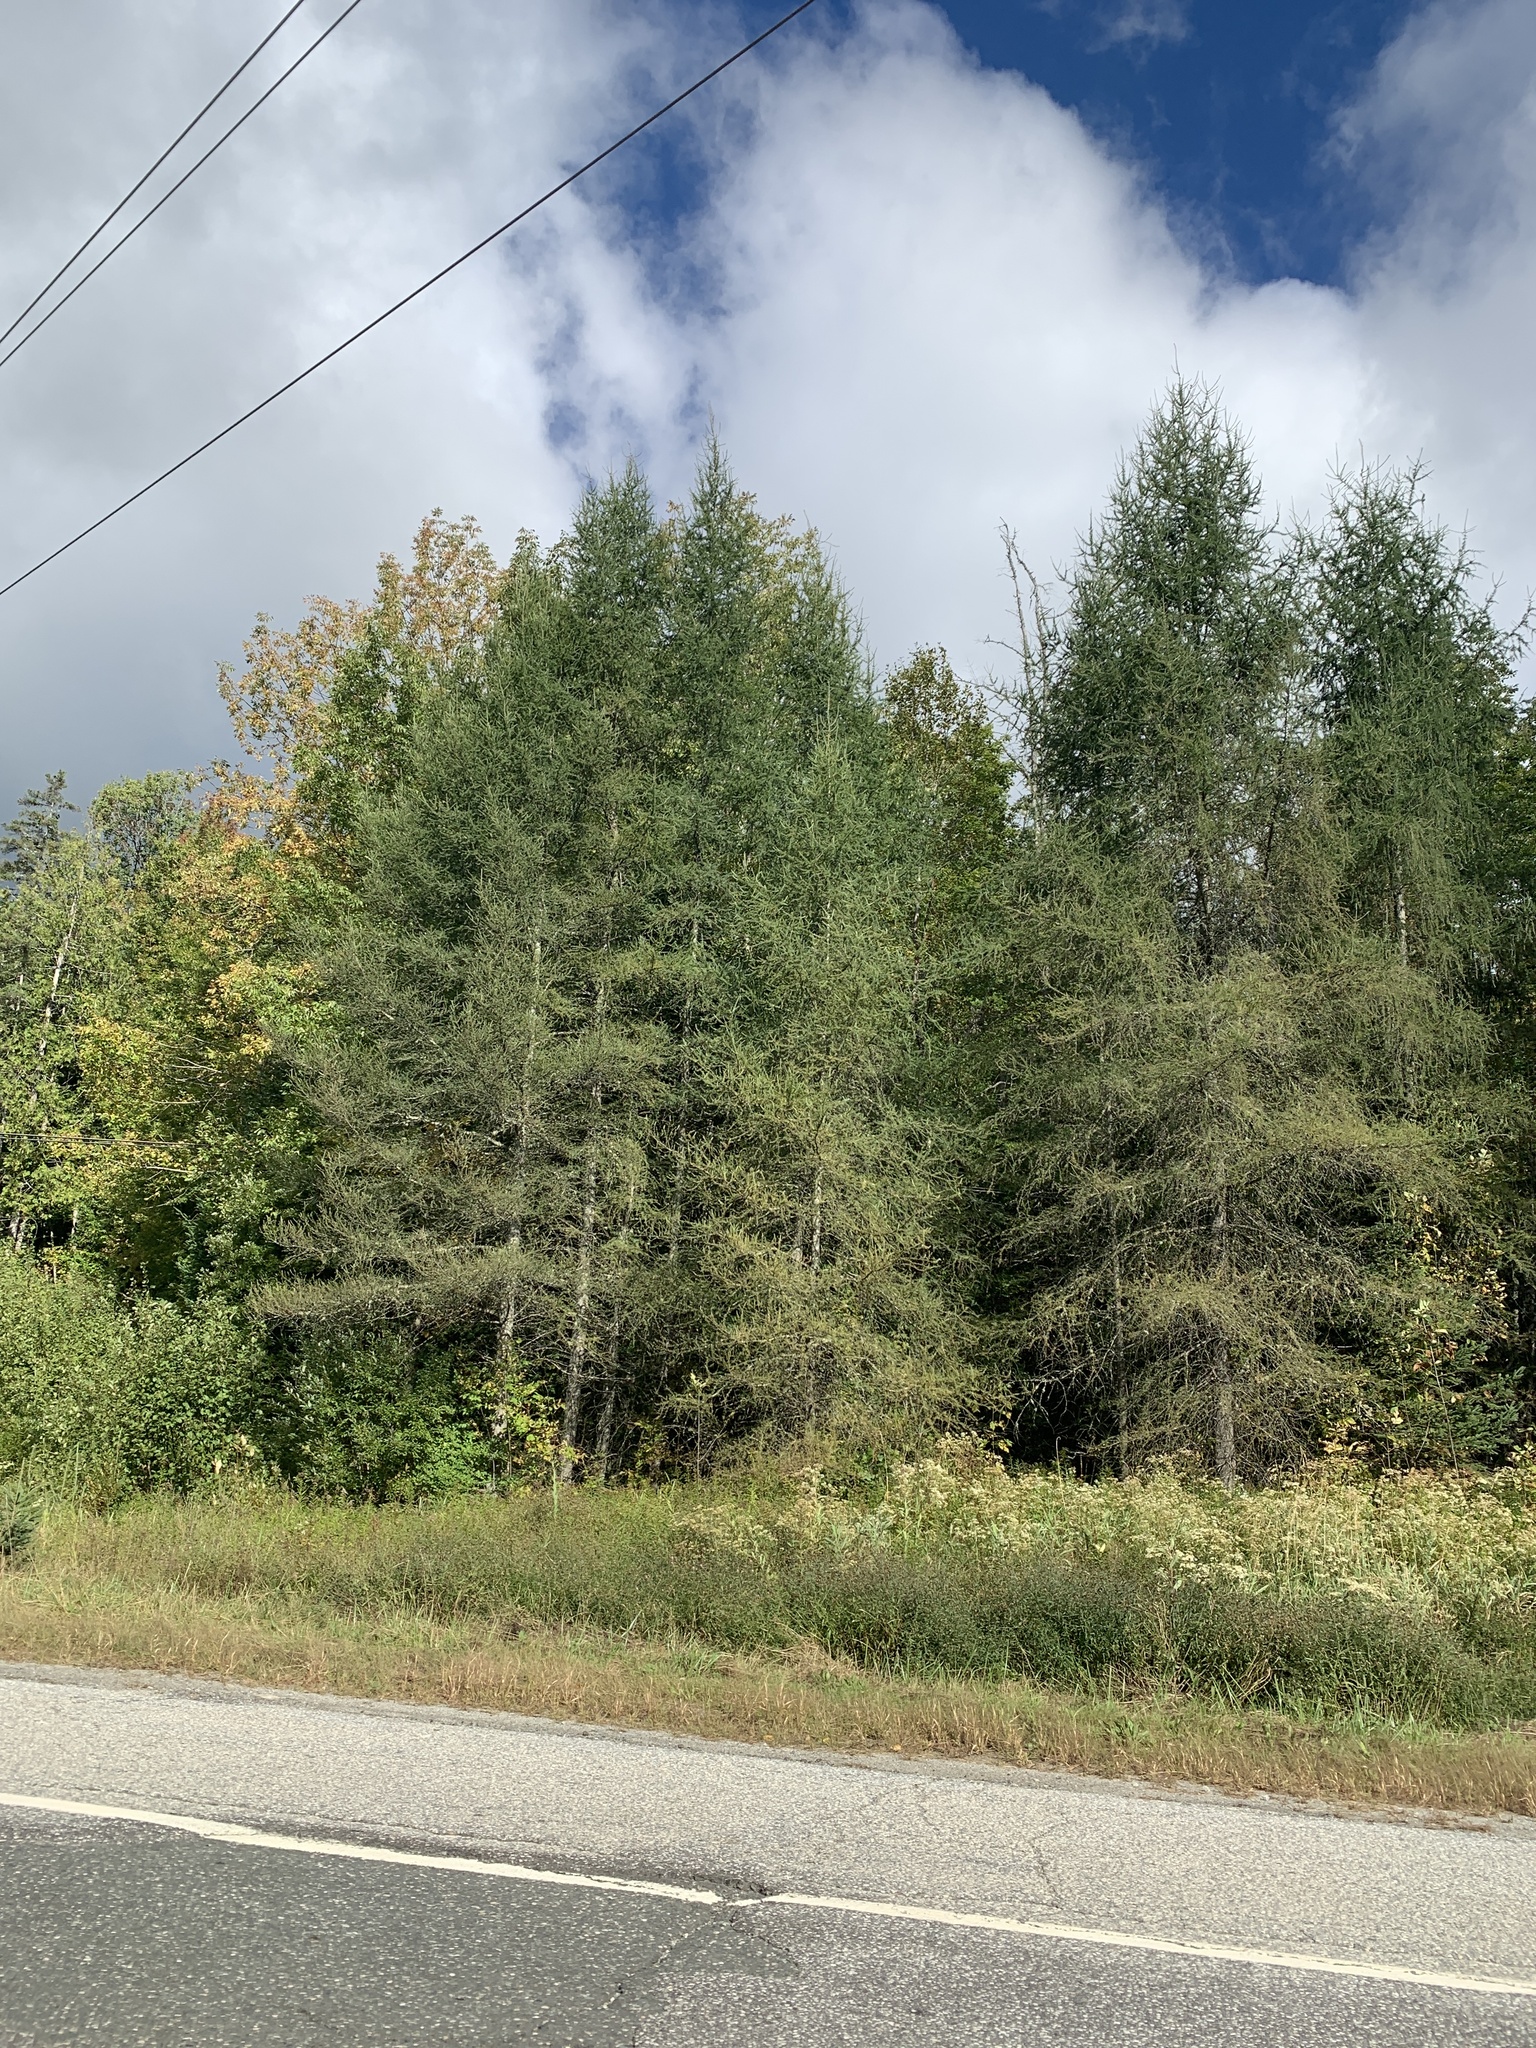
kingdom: Plantae
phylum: Tracheophyta
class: Pinopsida
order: Pinales
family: Pinaceae
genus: Larix
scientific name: Larix laricina
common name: American larch
